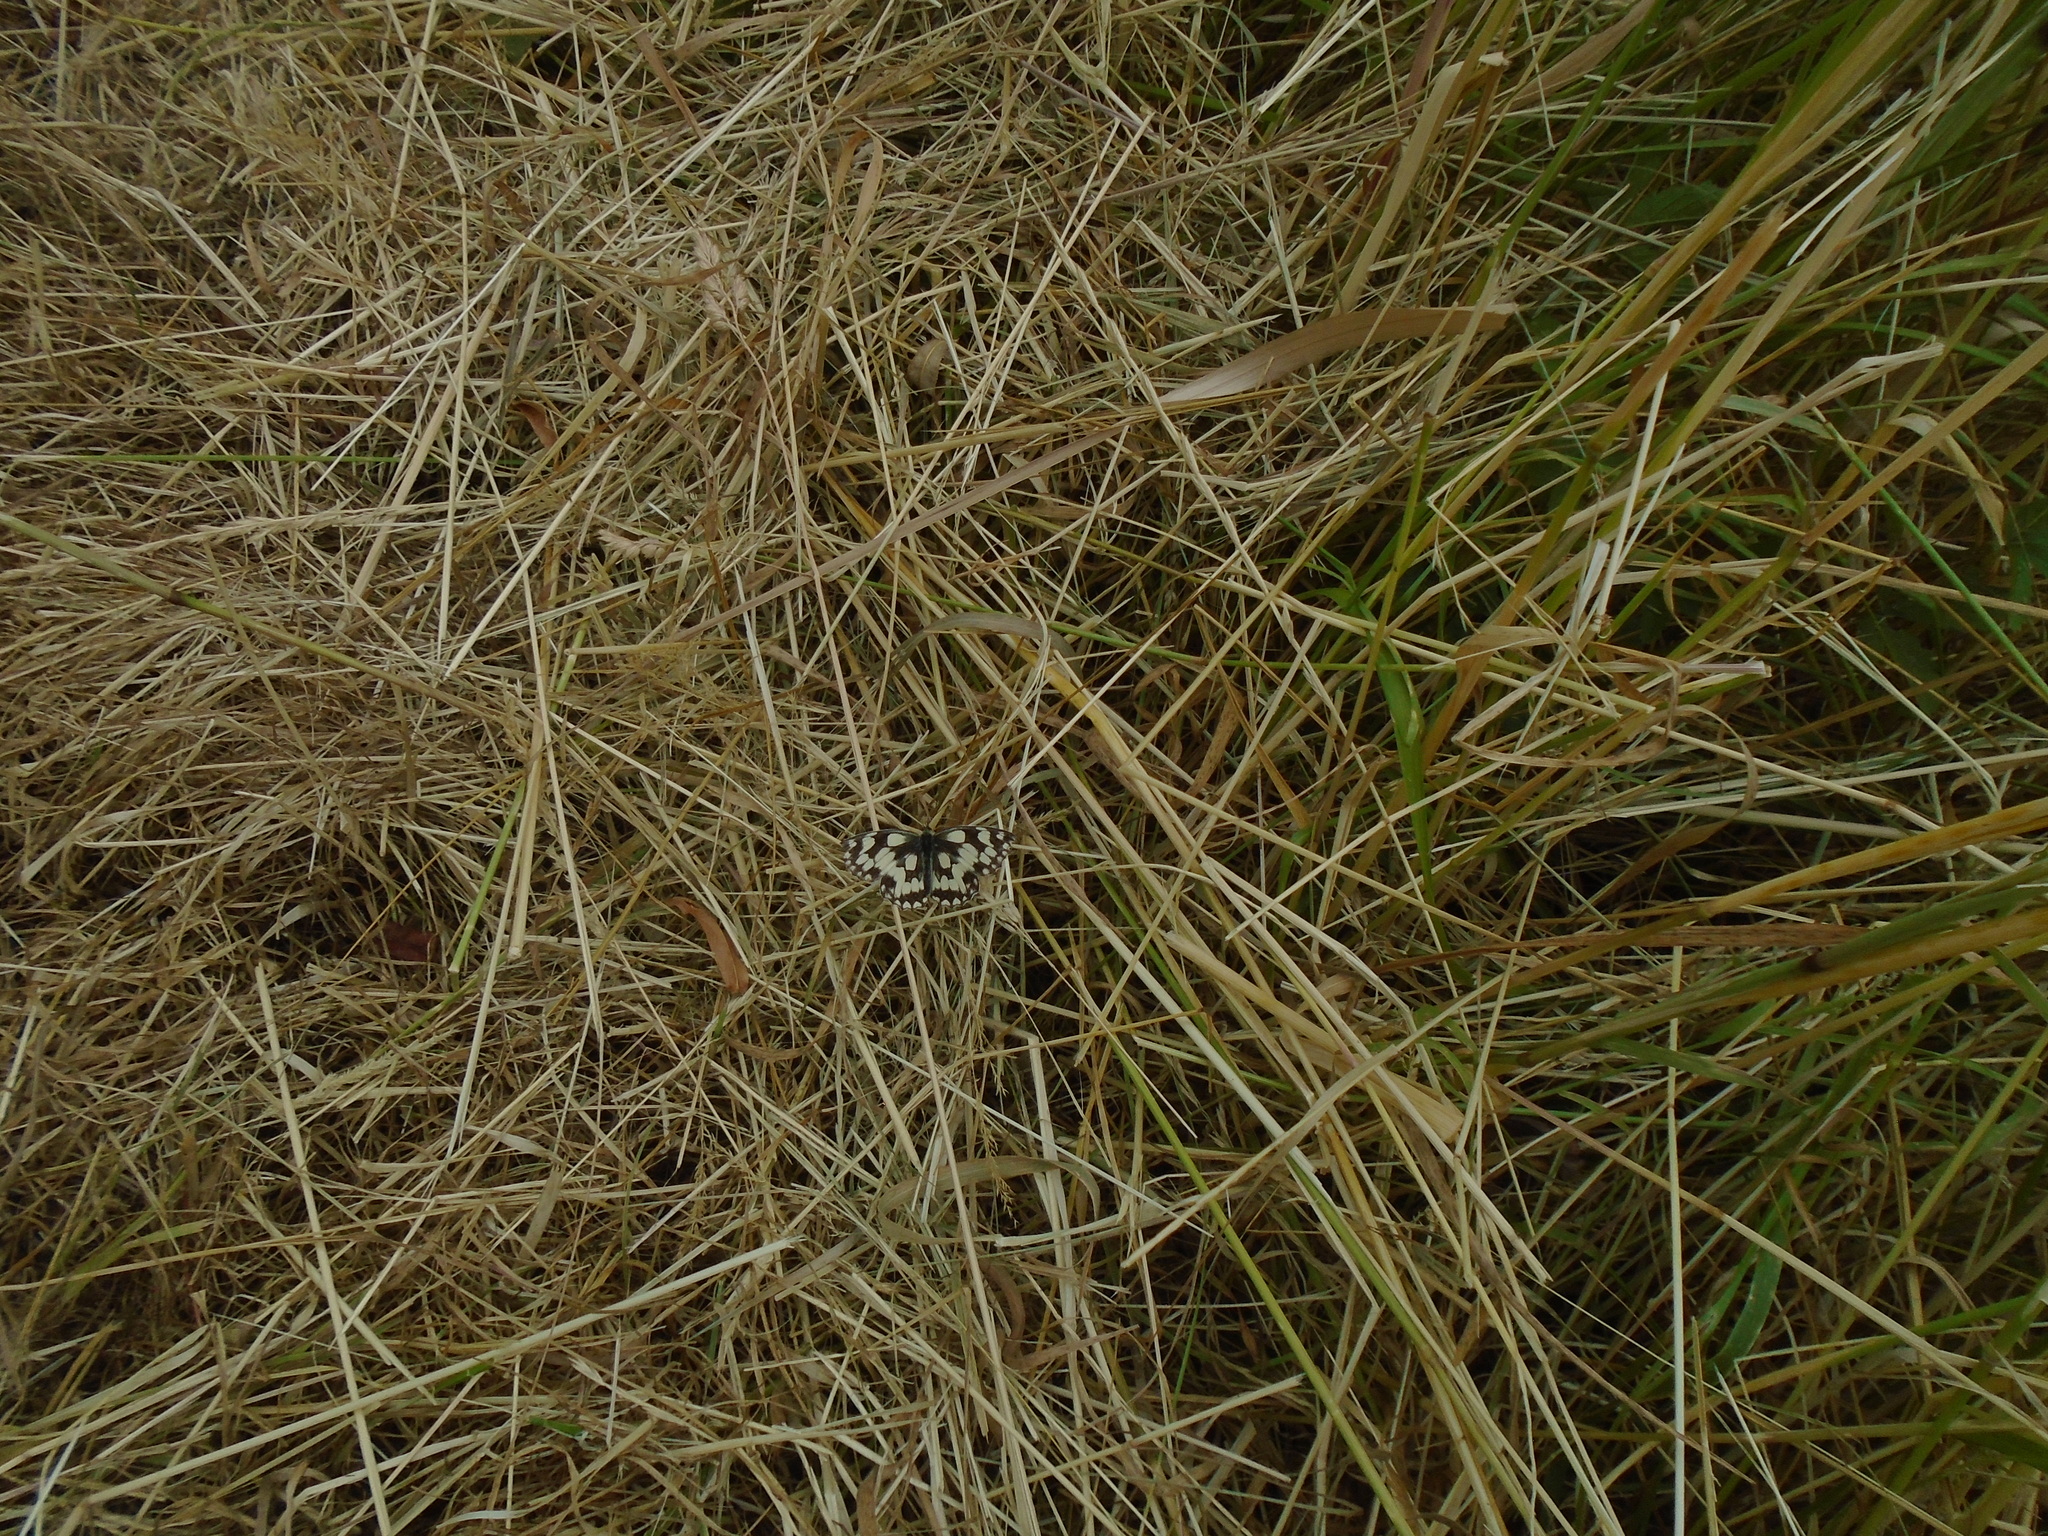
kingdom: Animalia
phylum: Arthropoda
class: Insecta
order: Lepidoptera
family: Nymphalidae
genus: Melanargia
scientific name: Melanargia galathea
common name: Marbled white
